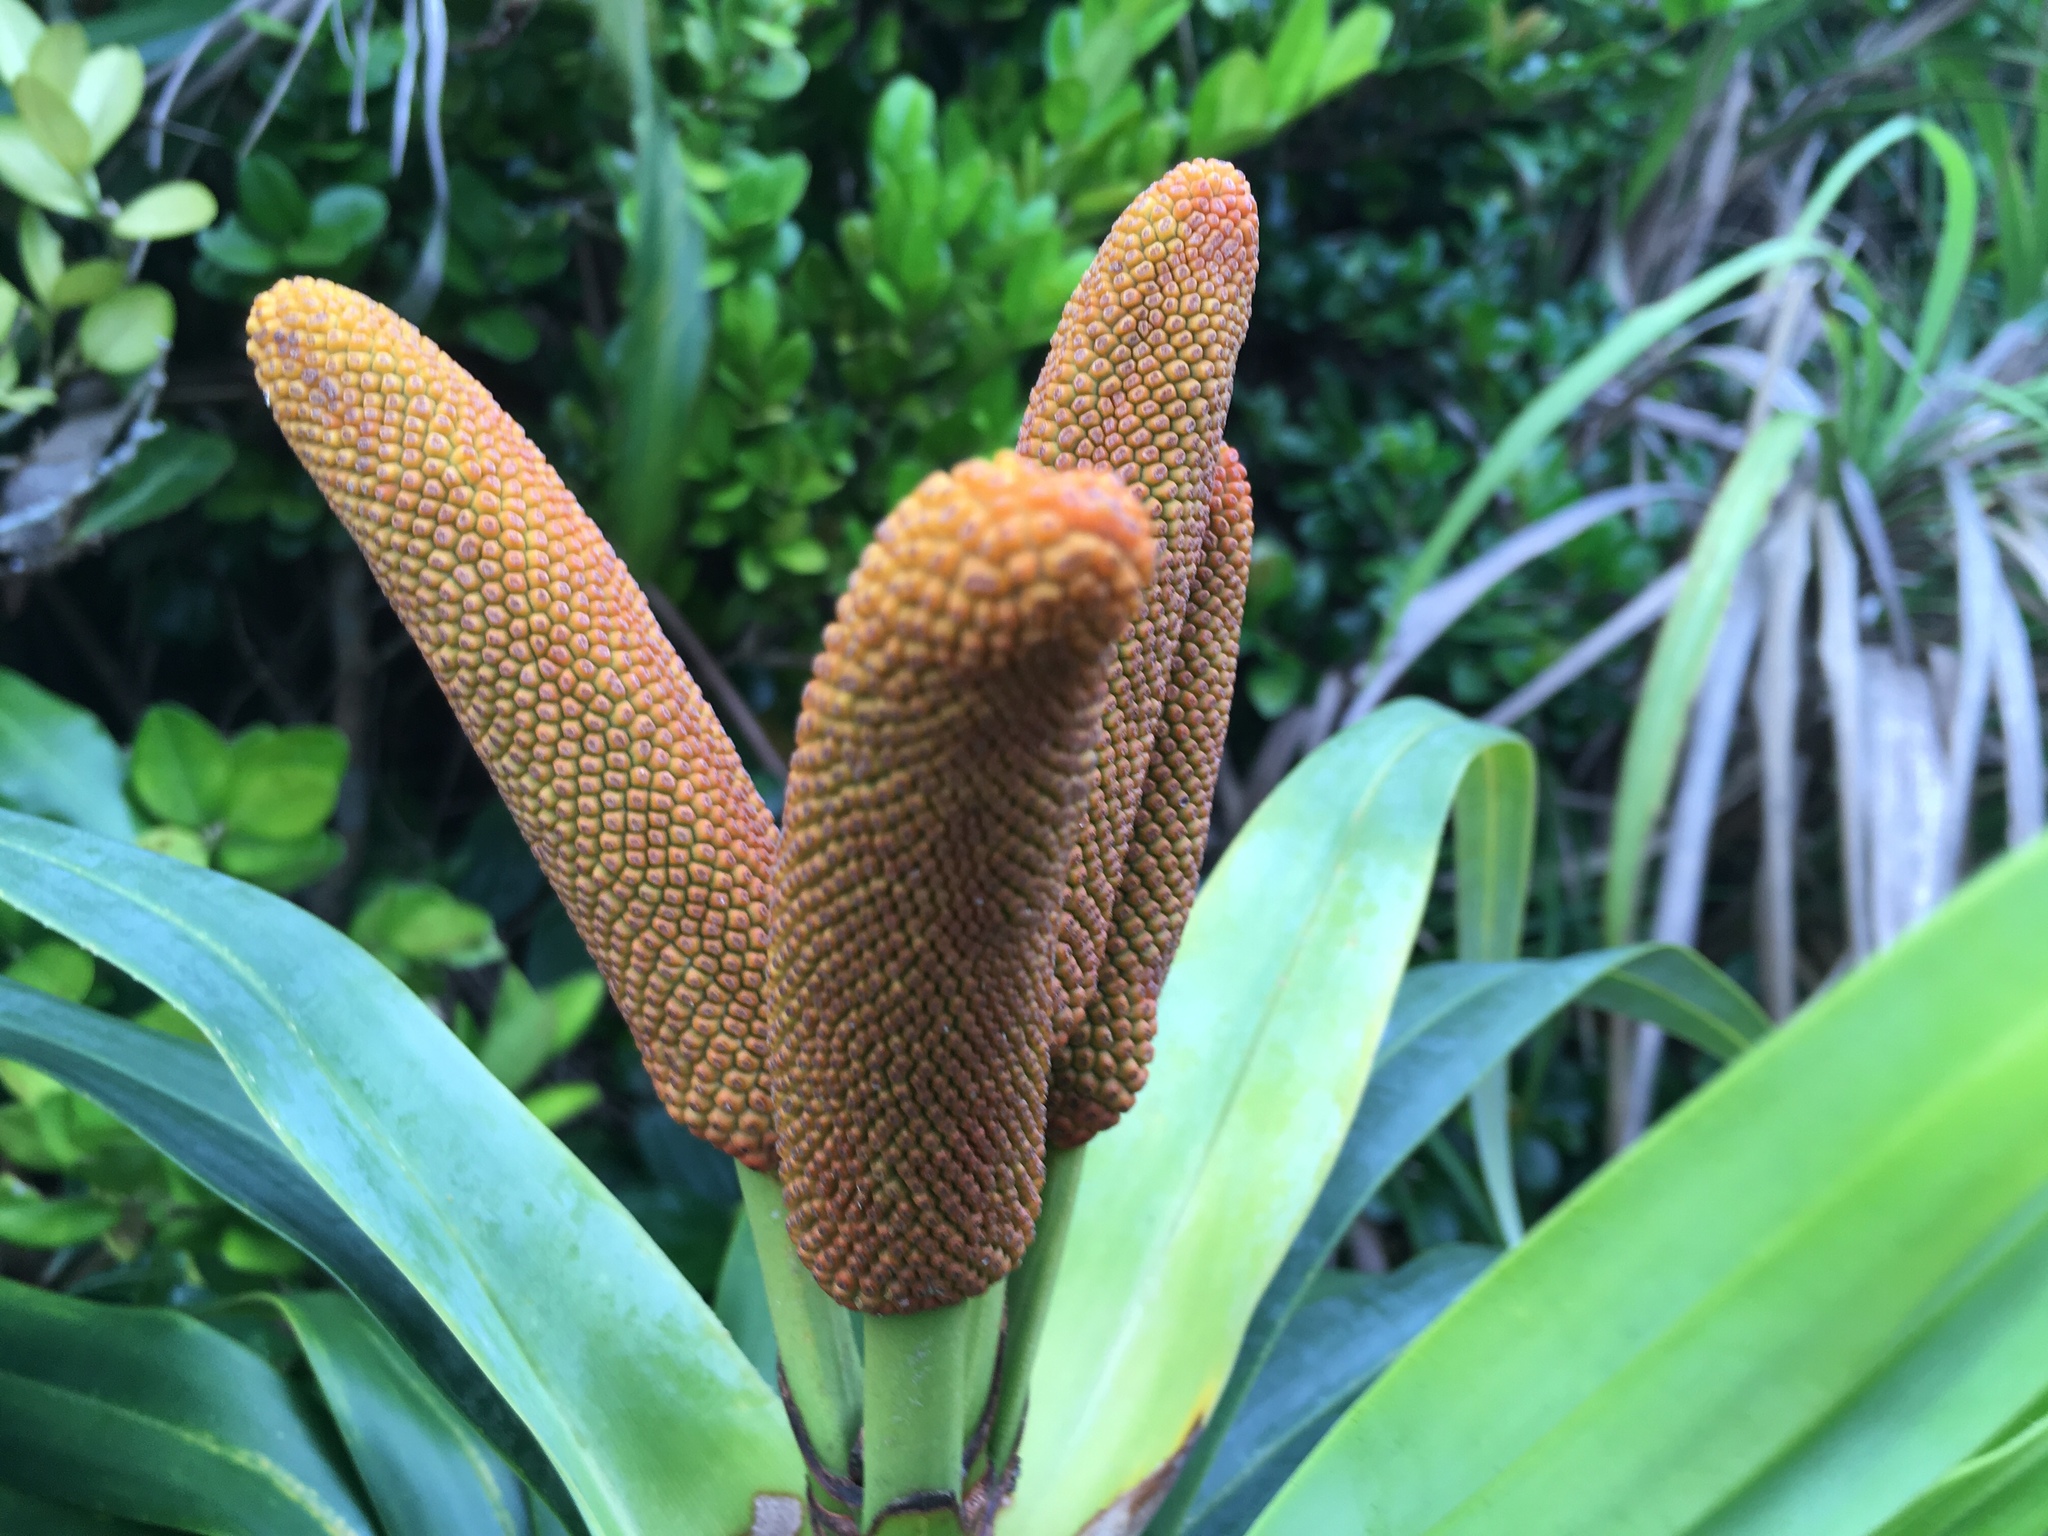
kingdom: Plantae
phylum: Tracheophyta
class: Liliopsida
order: Pandanales
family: Pandanaceae
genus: Freycinetia
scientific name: Freycinetia formosana
